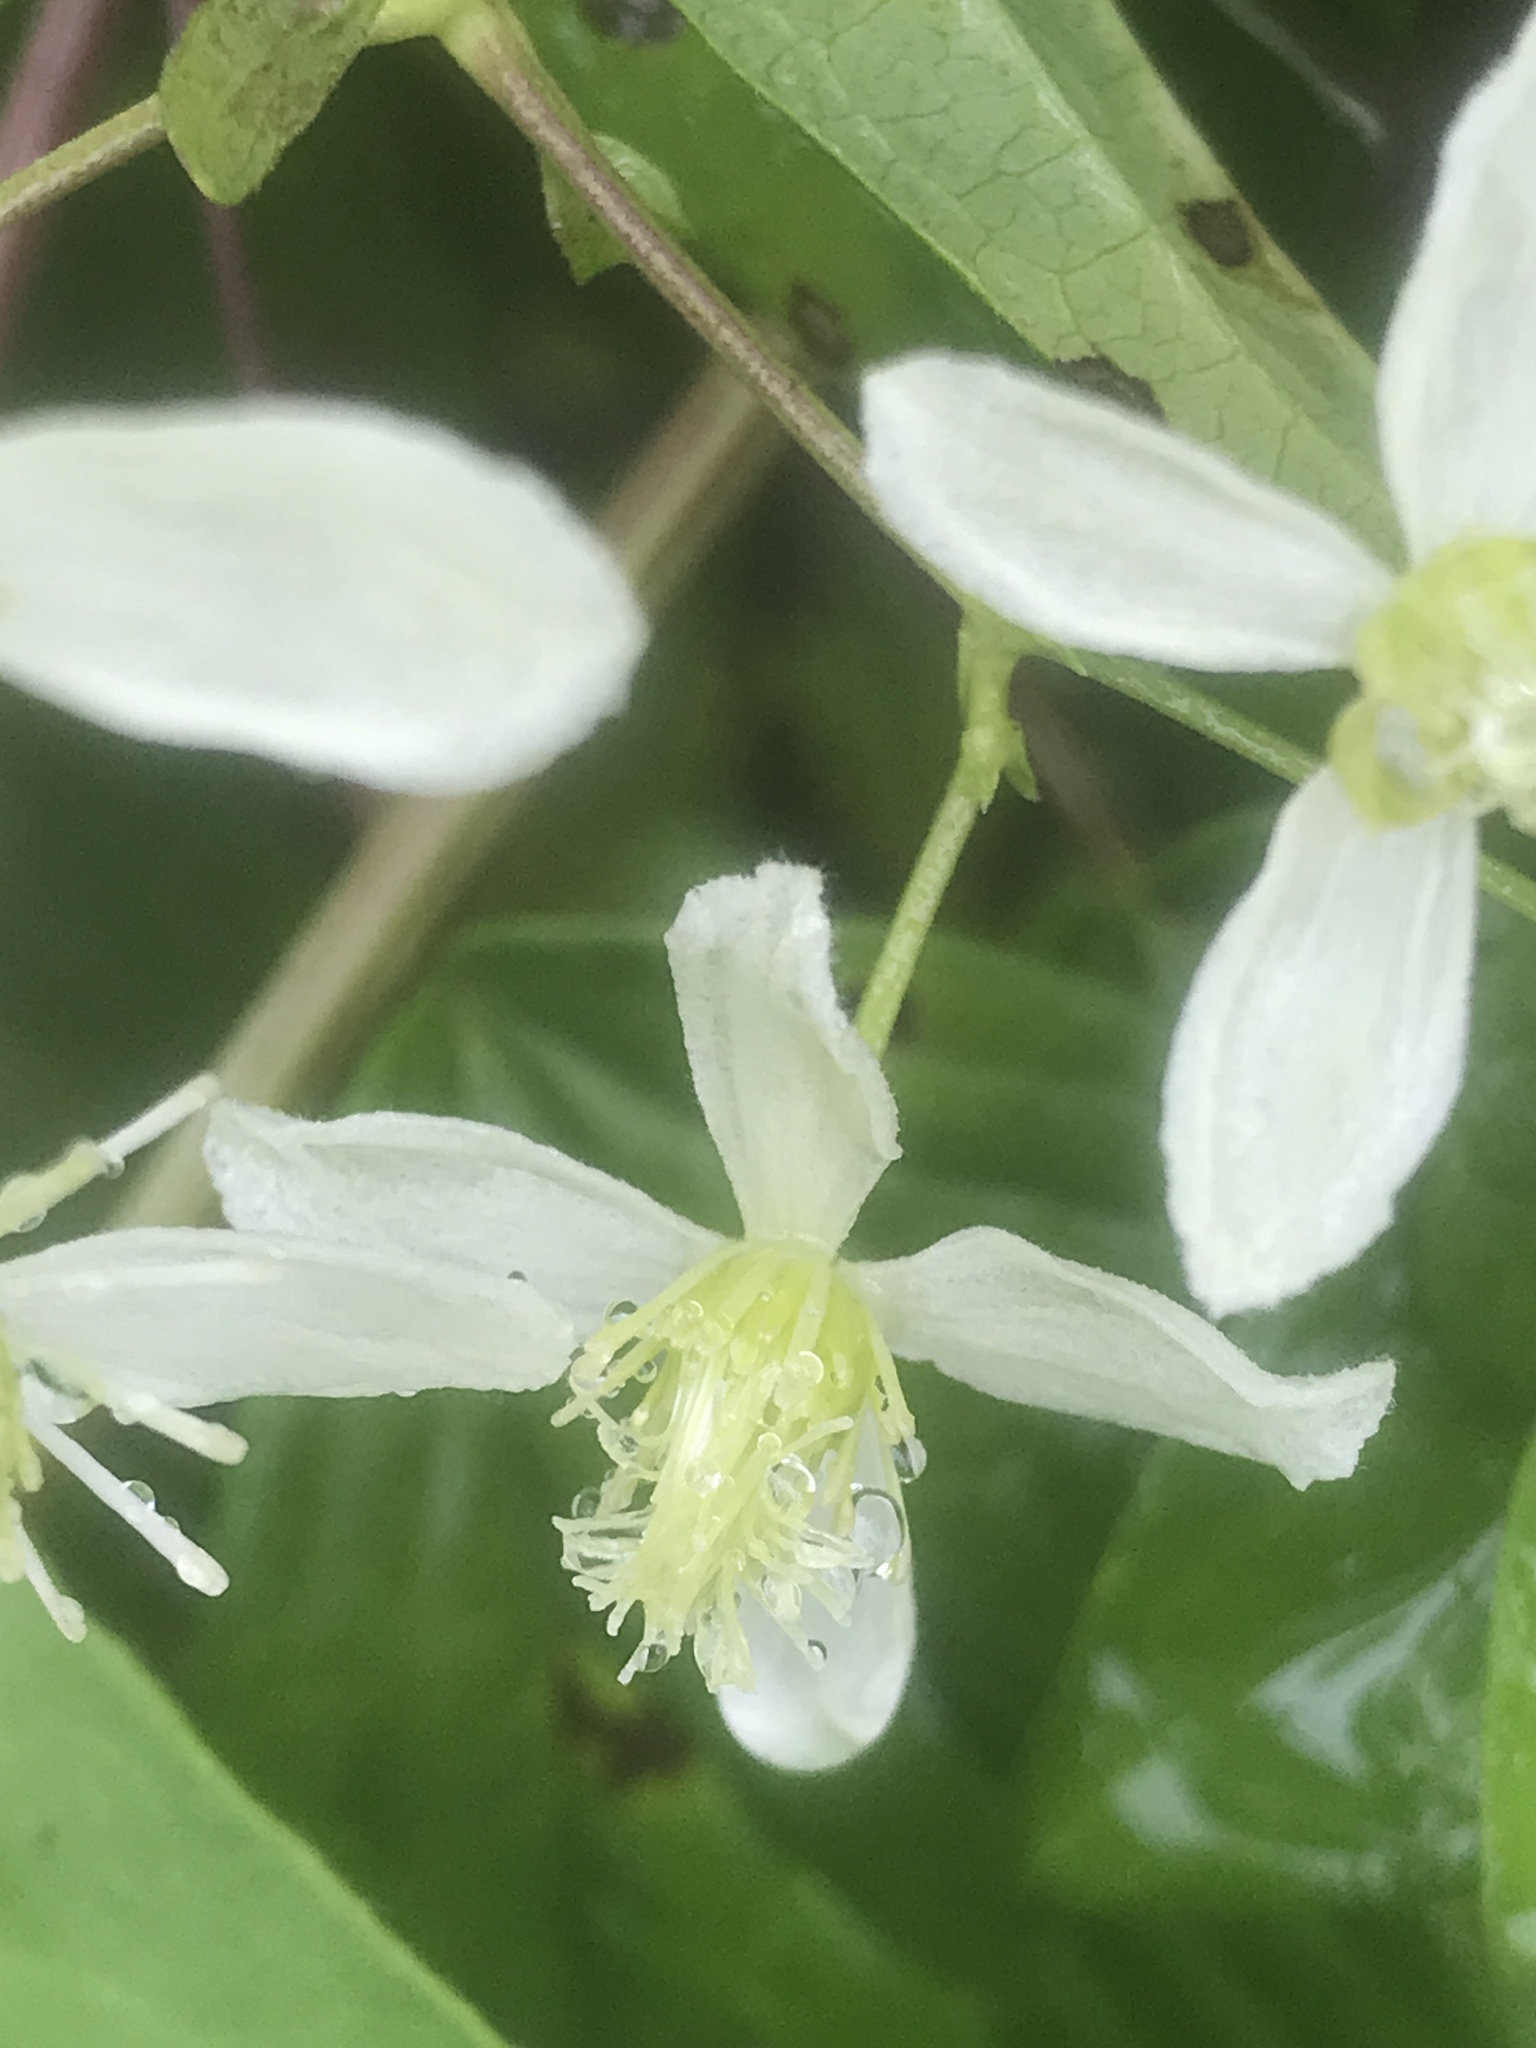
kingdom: Plantae
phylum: Tracheophyta
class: Magnoliopsida
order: Ranunculales
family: Ranunculaceae
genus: Clematis
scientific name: Clematis virginiana
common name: Virgin's-bower
